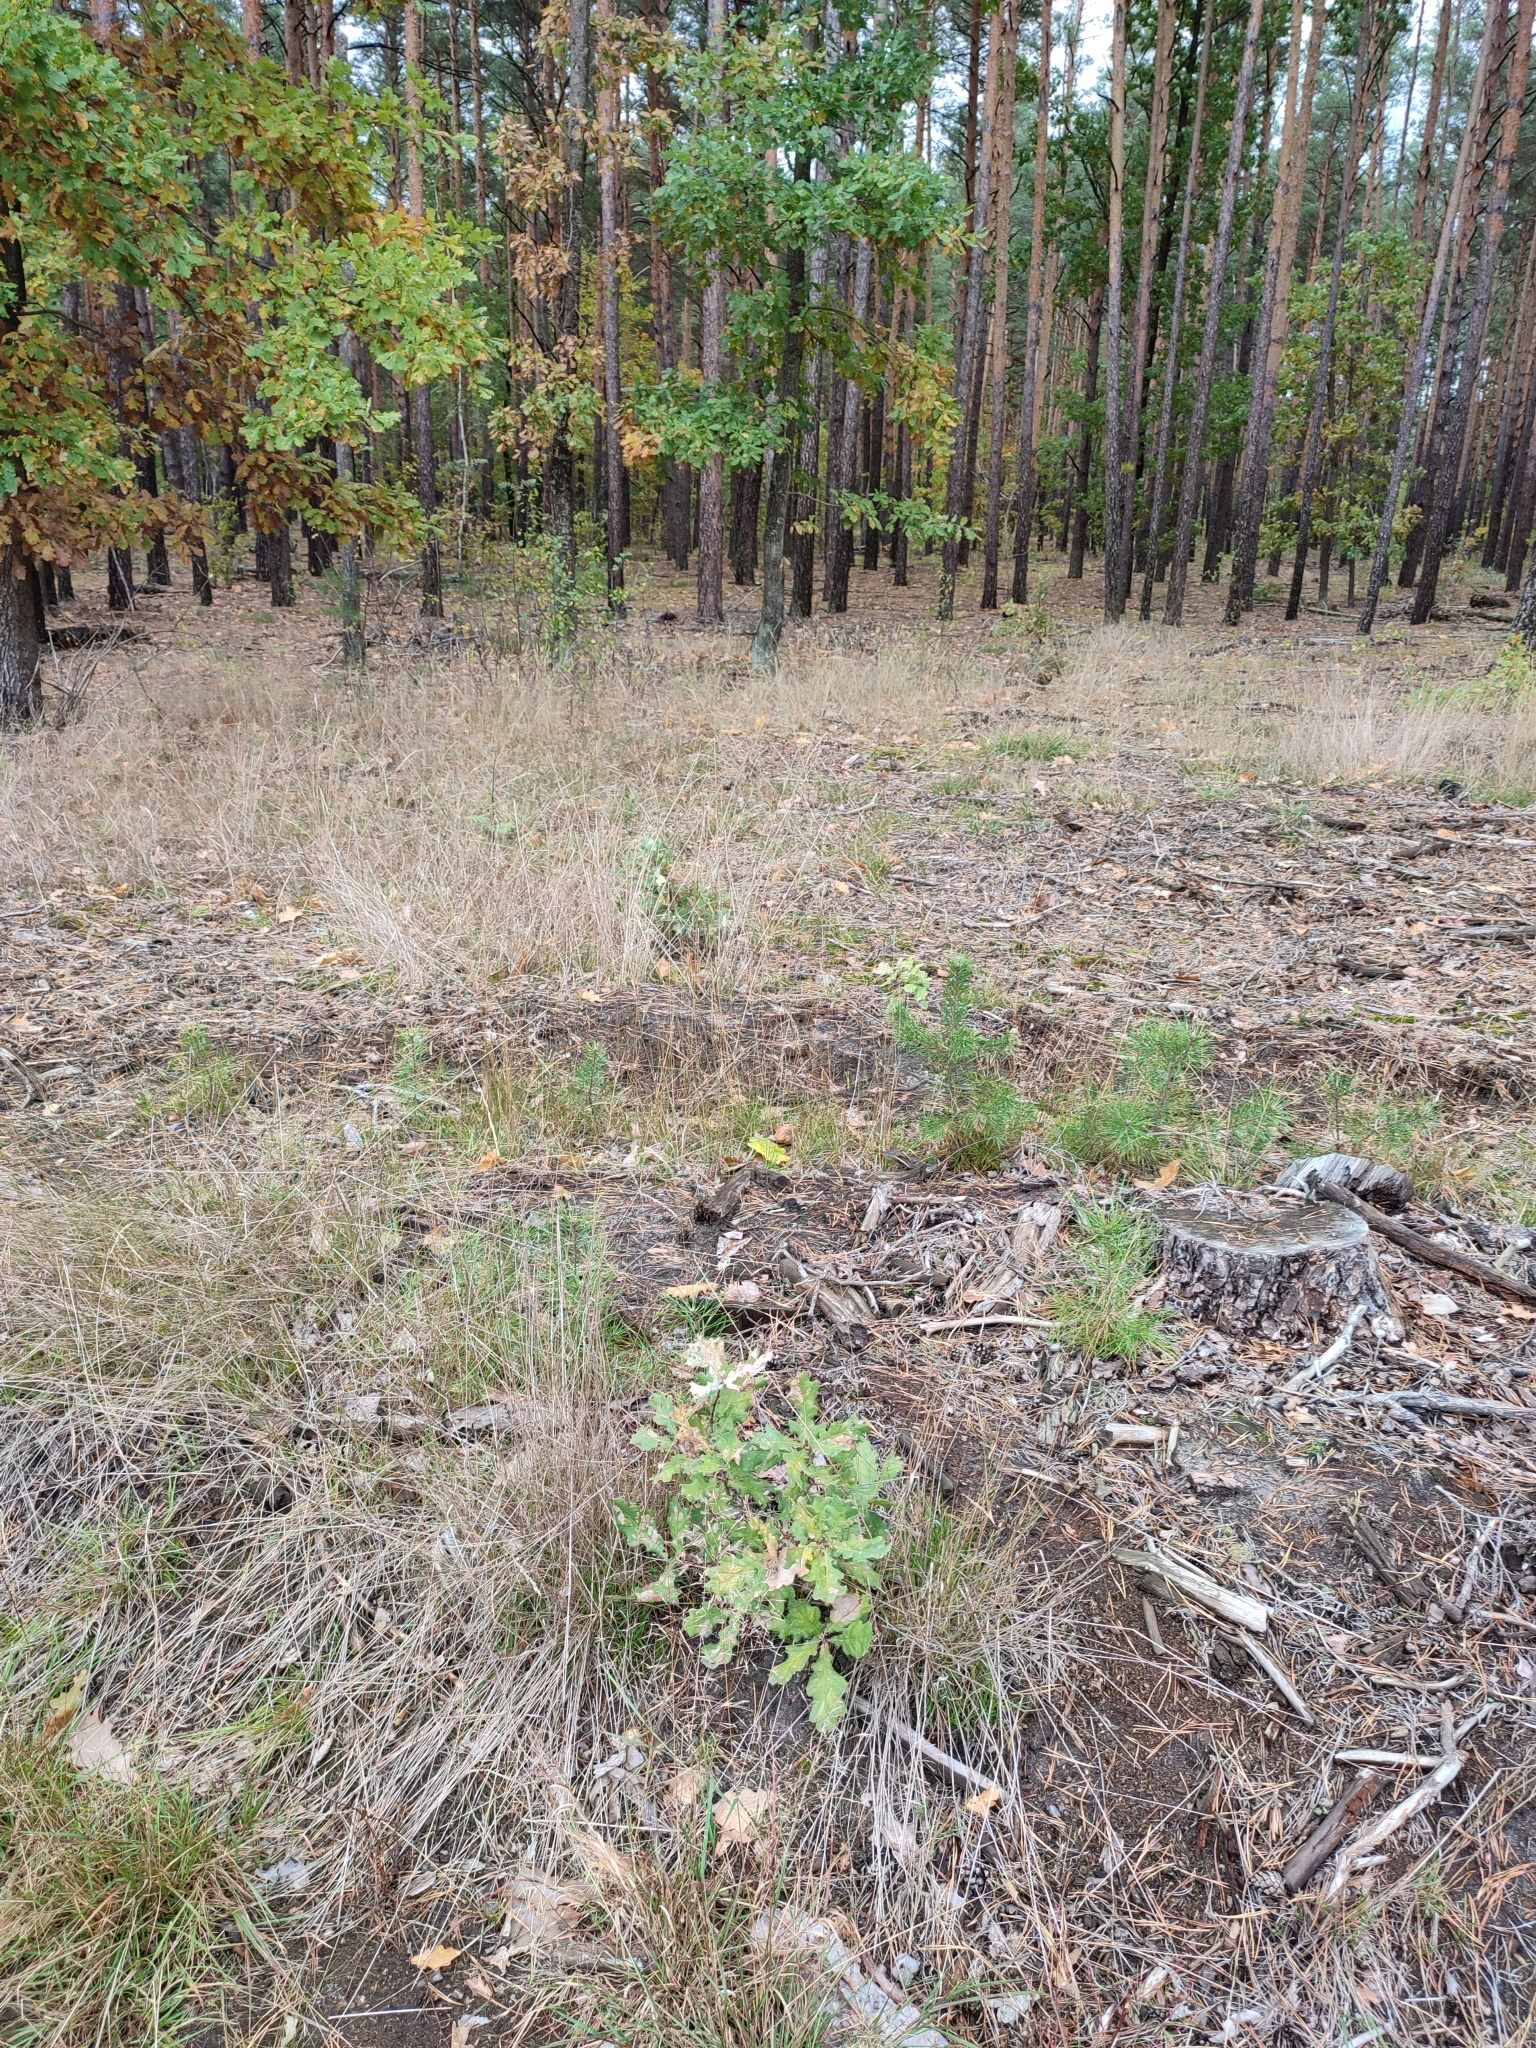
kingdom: Plantae
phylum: Tracheophyta
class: Magnoliopsida
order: Fagales
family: Fagaceae
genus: Quercus
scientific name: Quercus robur
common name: Pedunculate oak
